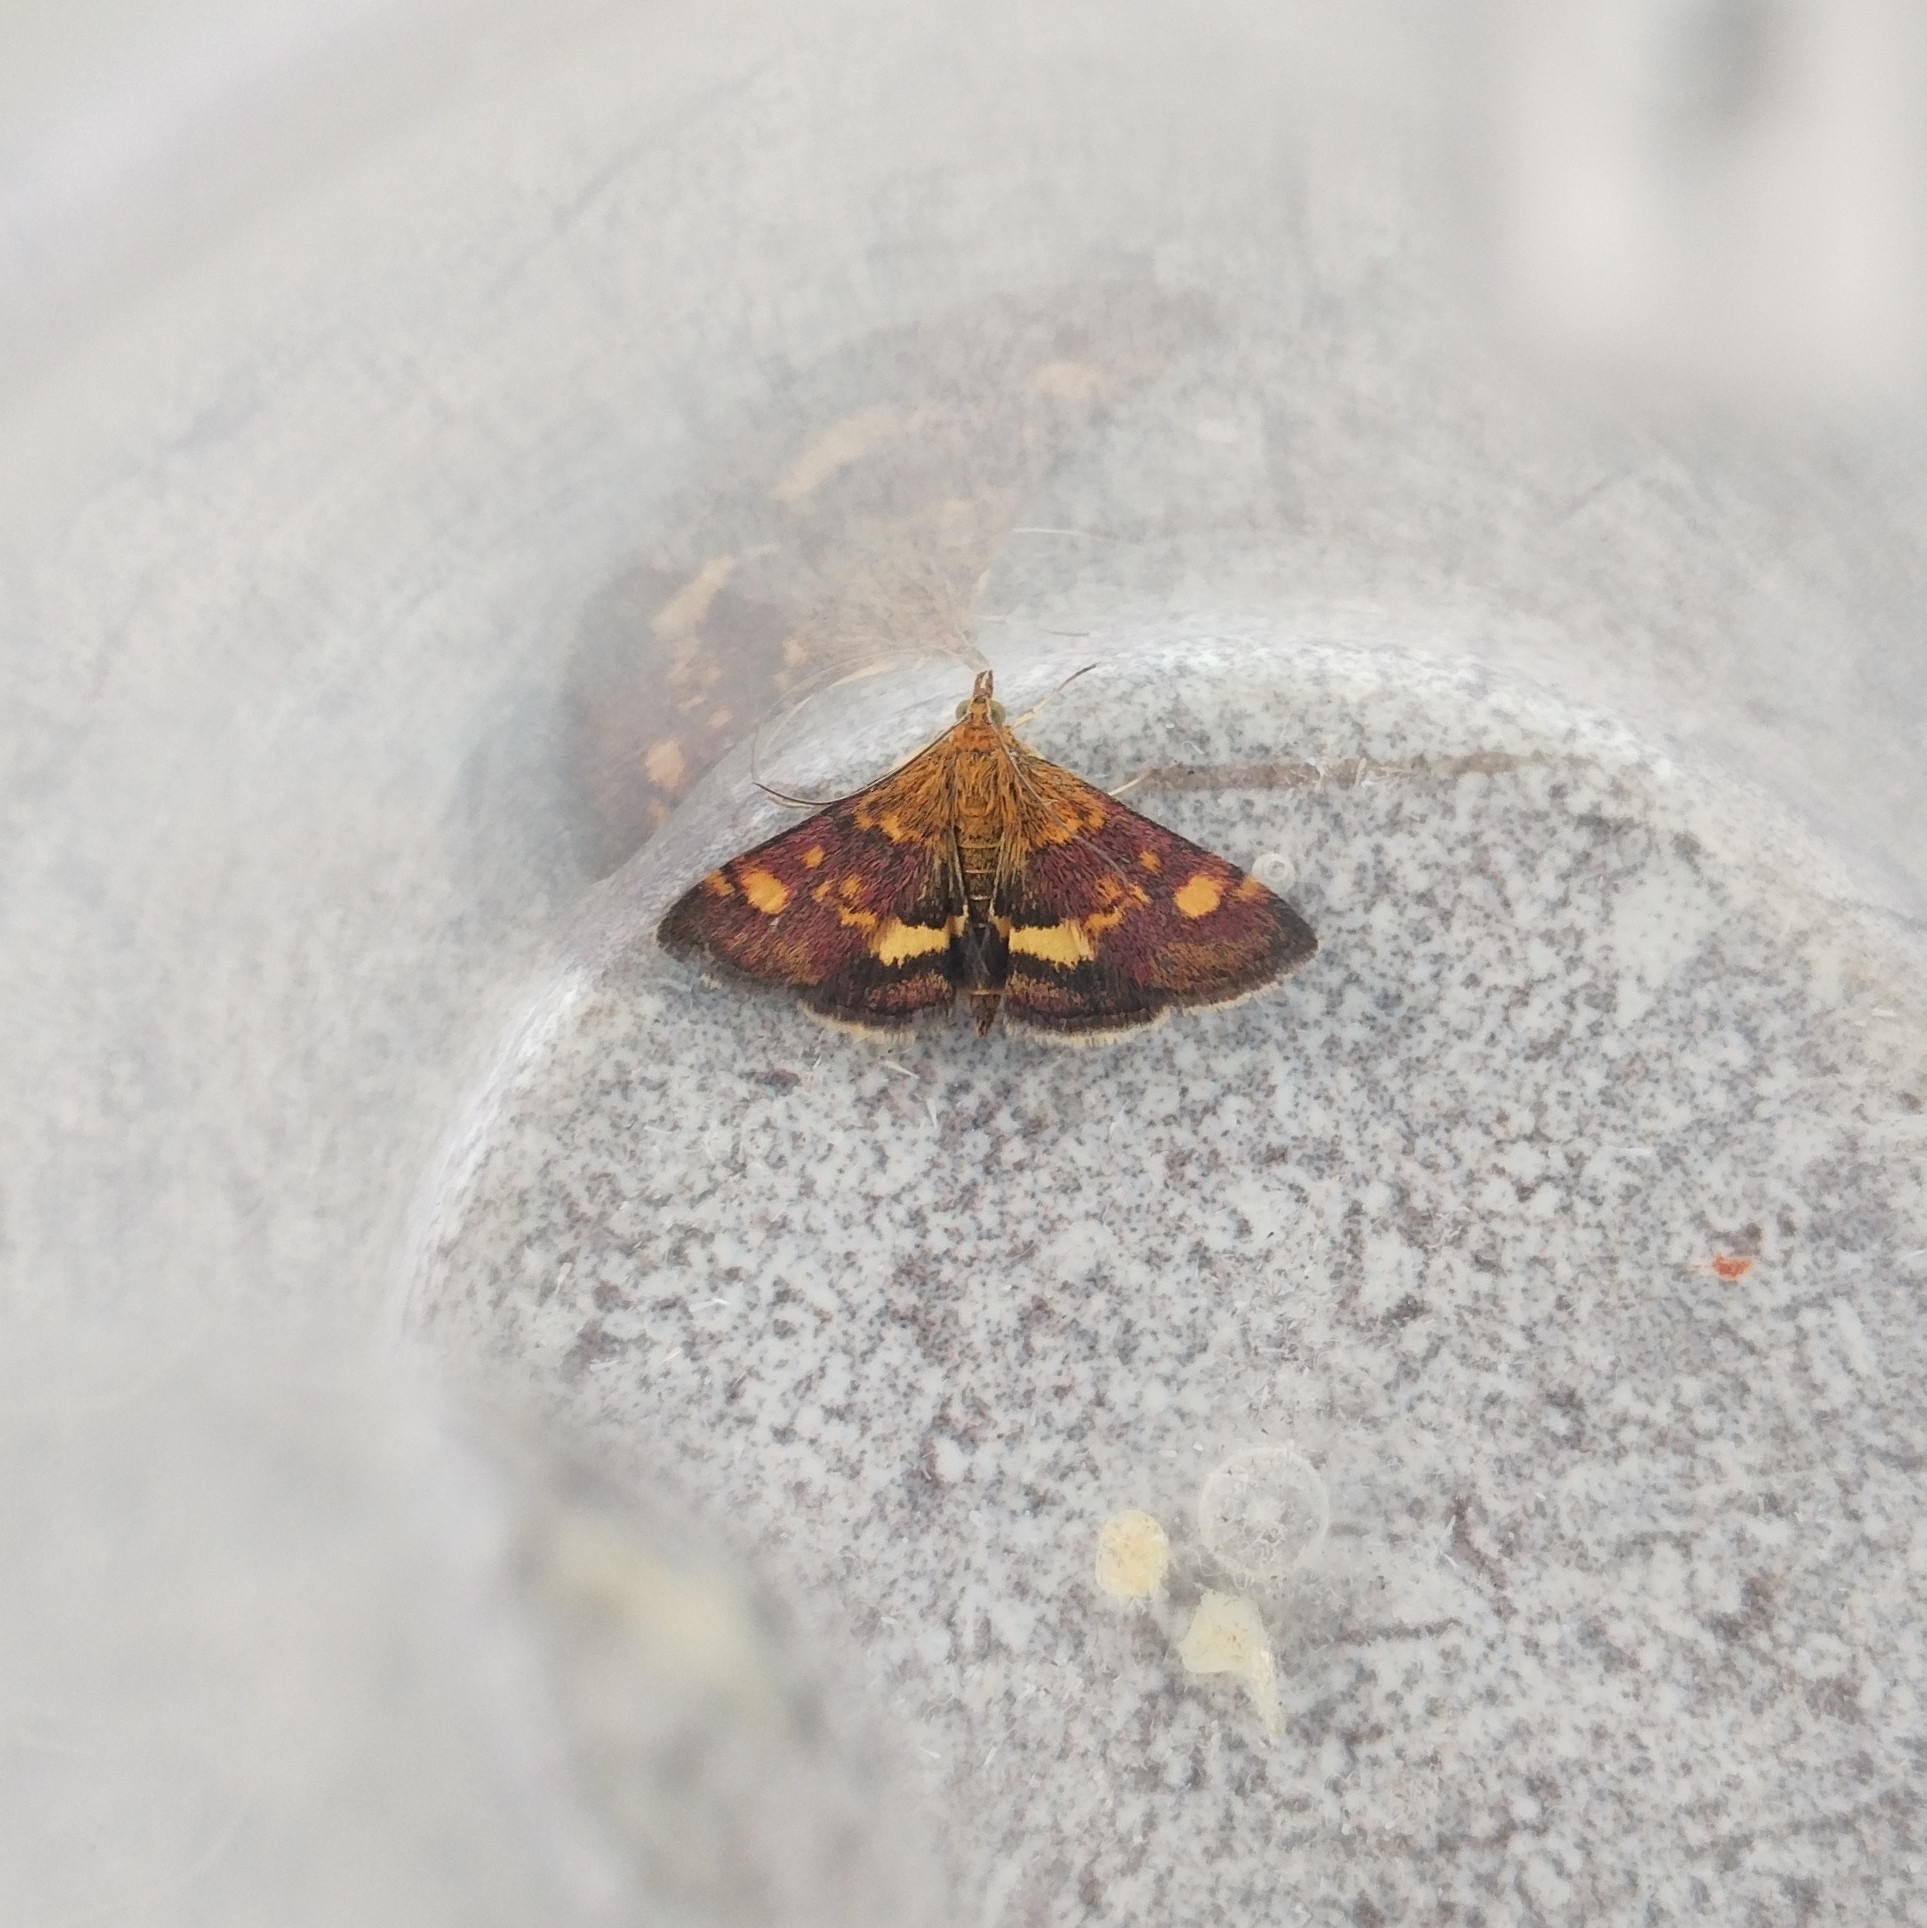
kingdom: Animalia
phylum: Arthropoda
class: Insecta
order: Lepidoptera
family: Crambidae
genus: Pyrausta
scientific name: Pyrausta aurata
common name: Small purple & gold
